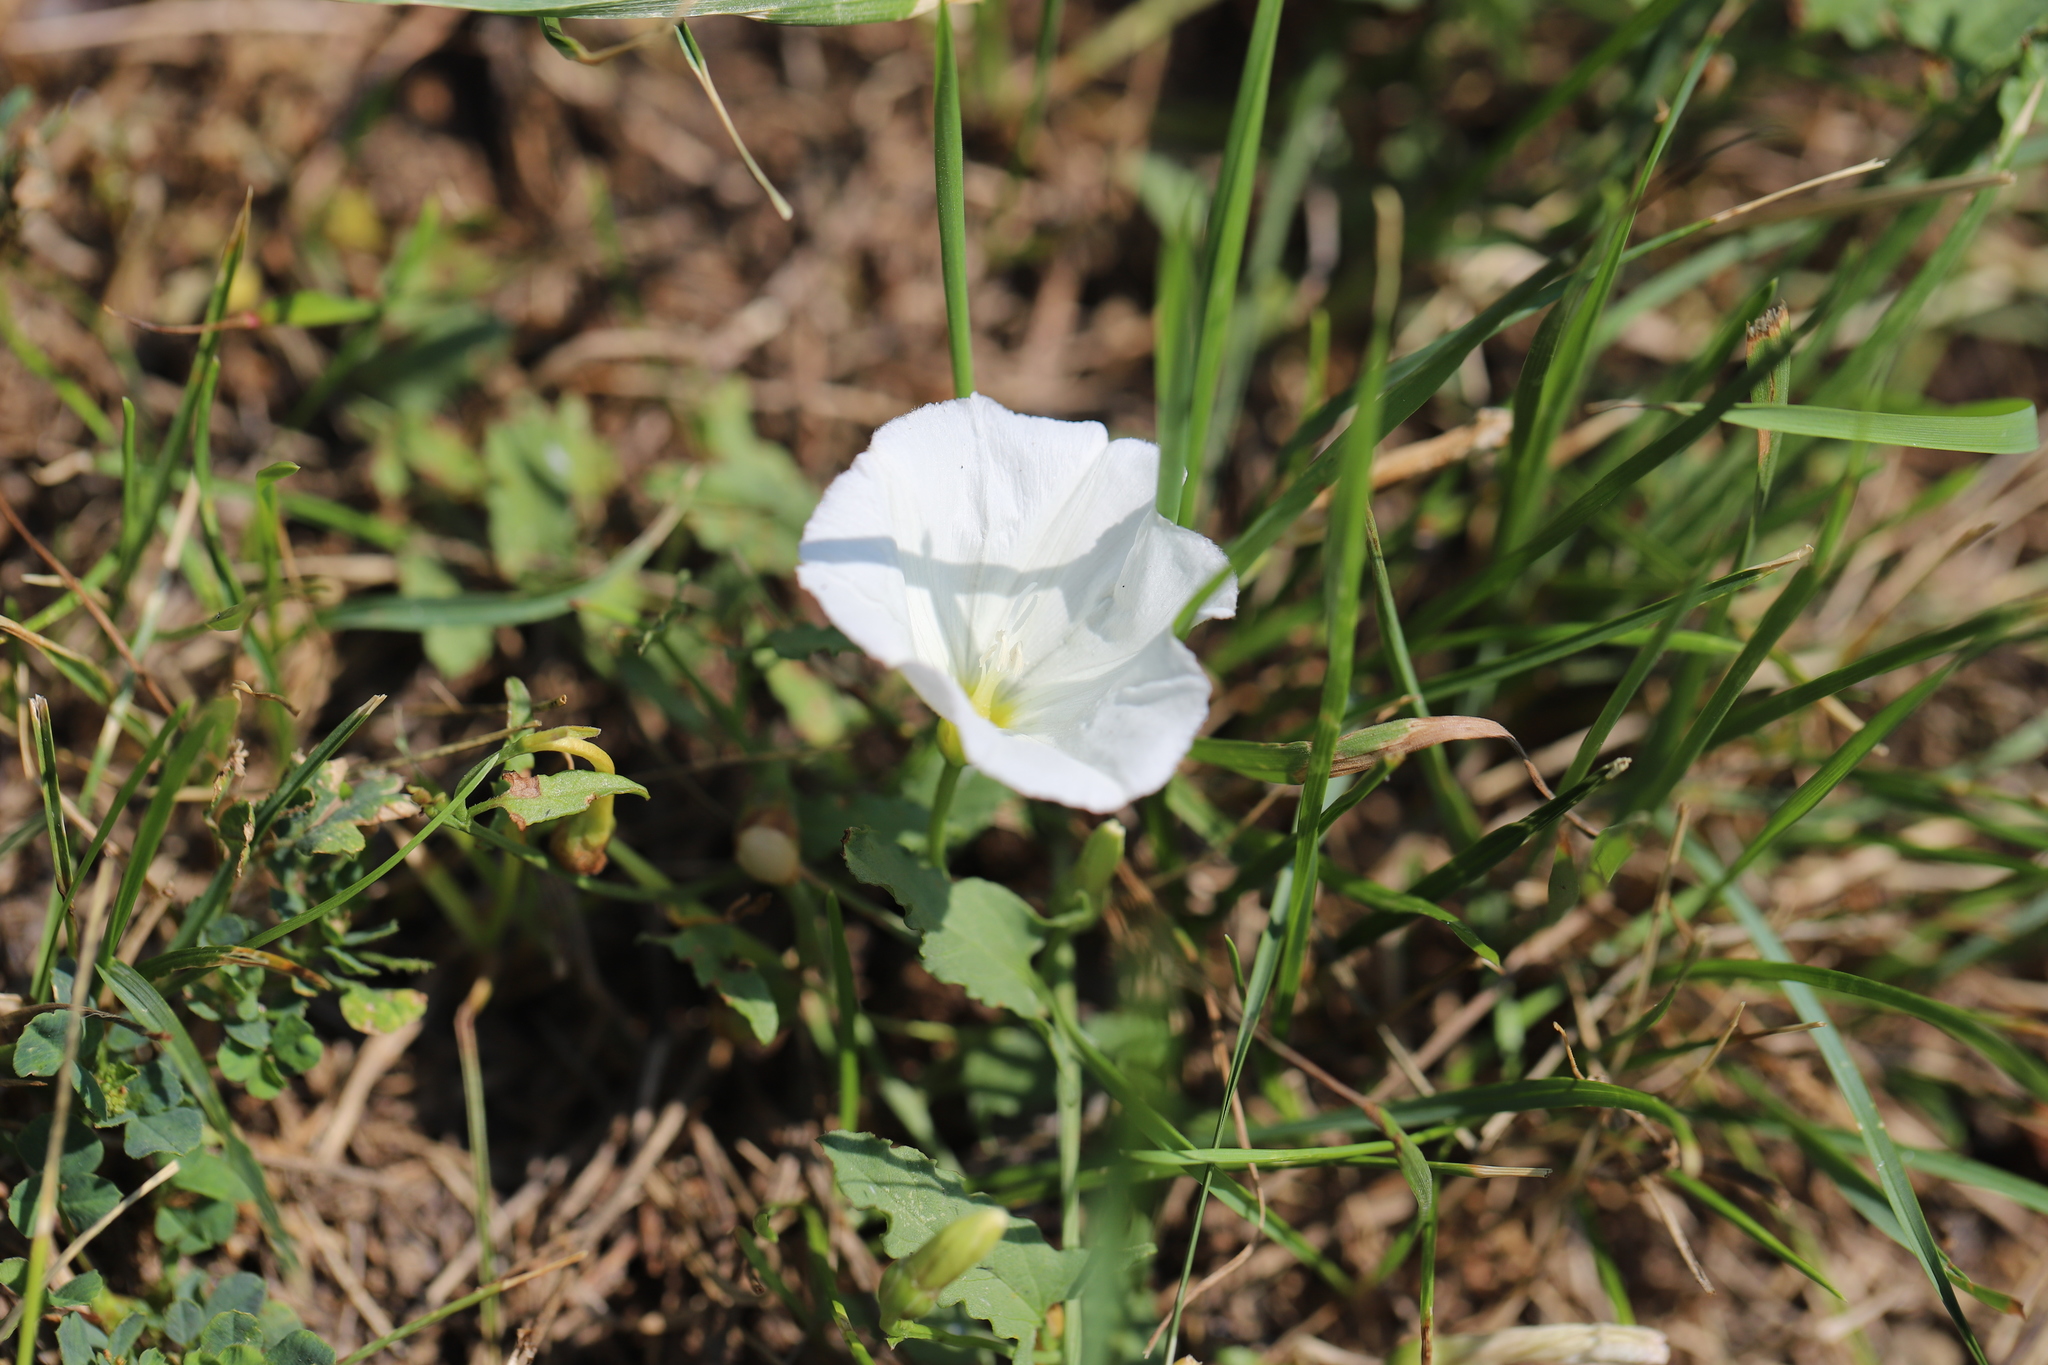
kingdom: Plantae
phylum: Tracheophyta
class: Magnoliopsida
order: Solanales
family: Convolvulaceae
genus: Convolvulus
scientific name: Convolvulus arvensis
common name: Field bindweed
